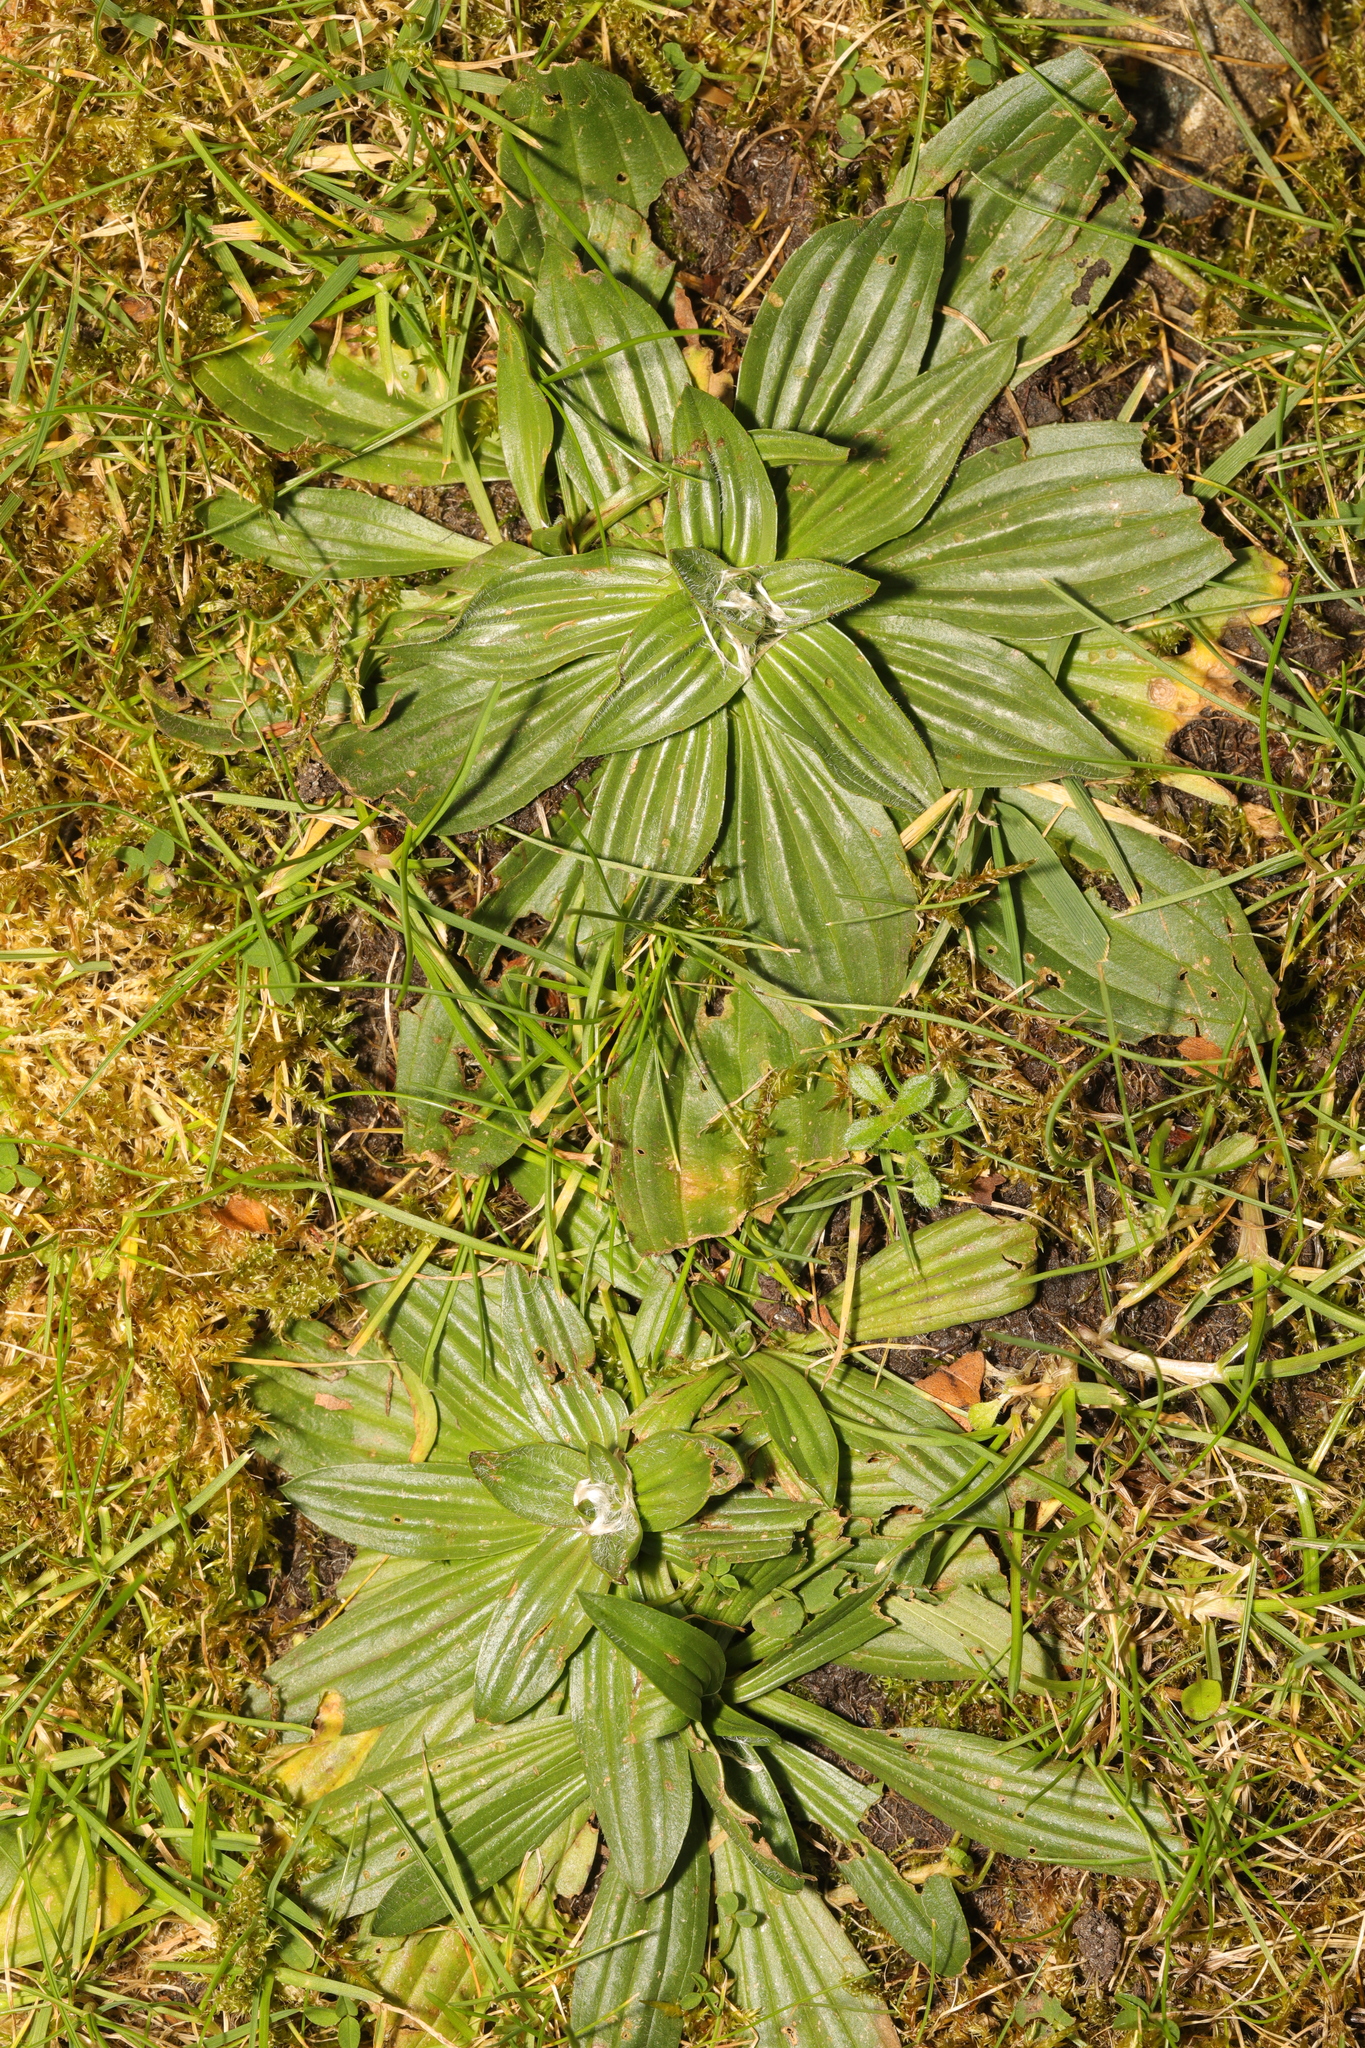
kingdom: Plantae
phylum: Tracheophyta
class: Magnoliopsida
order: Lamiales
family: Plantaginaceae
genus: Plantago
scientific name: Plantago lanceolata
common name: Ribwort plantain
